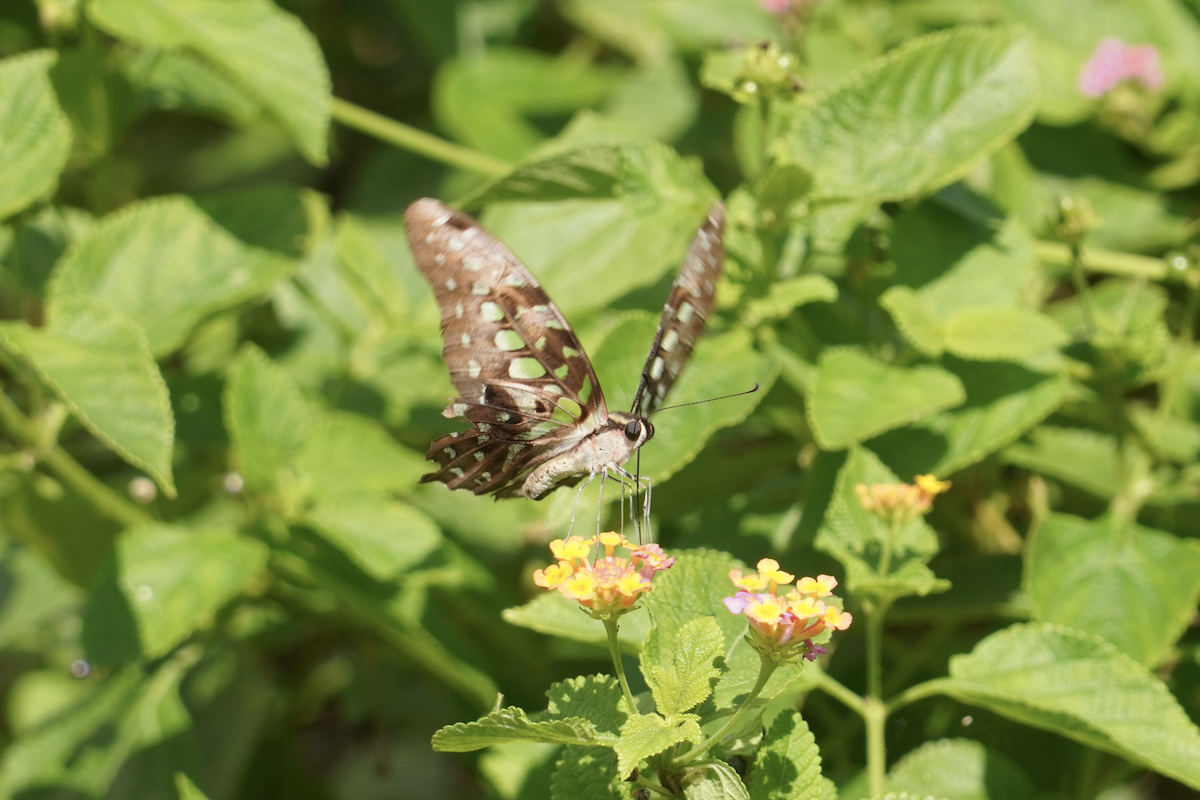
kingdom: Animalia
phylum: Arthropoda
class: Insecta
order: Lepidoptera
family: Papilionidae
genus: Graphium
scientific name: Graphium agamemnon
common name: Tailed jay
